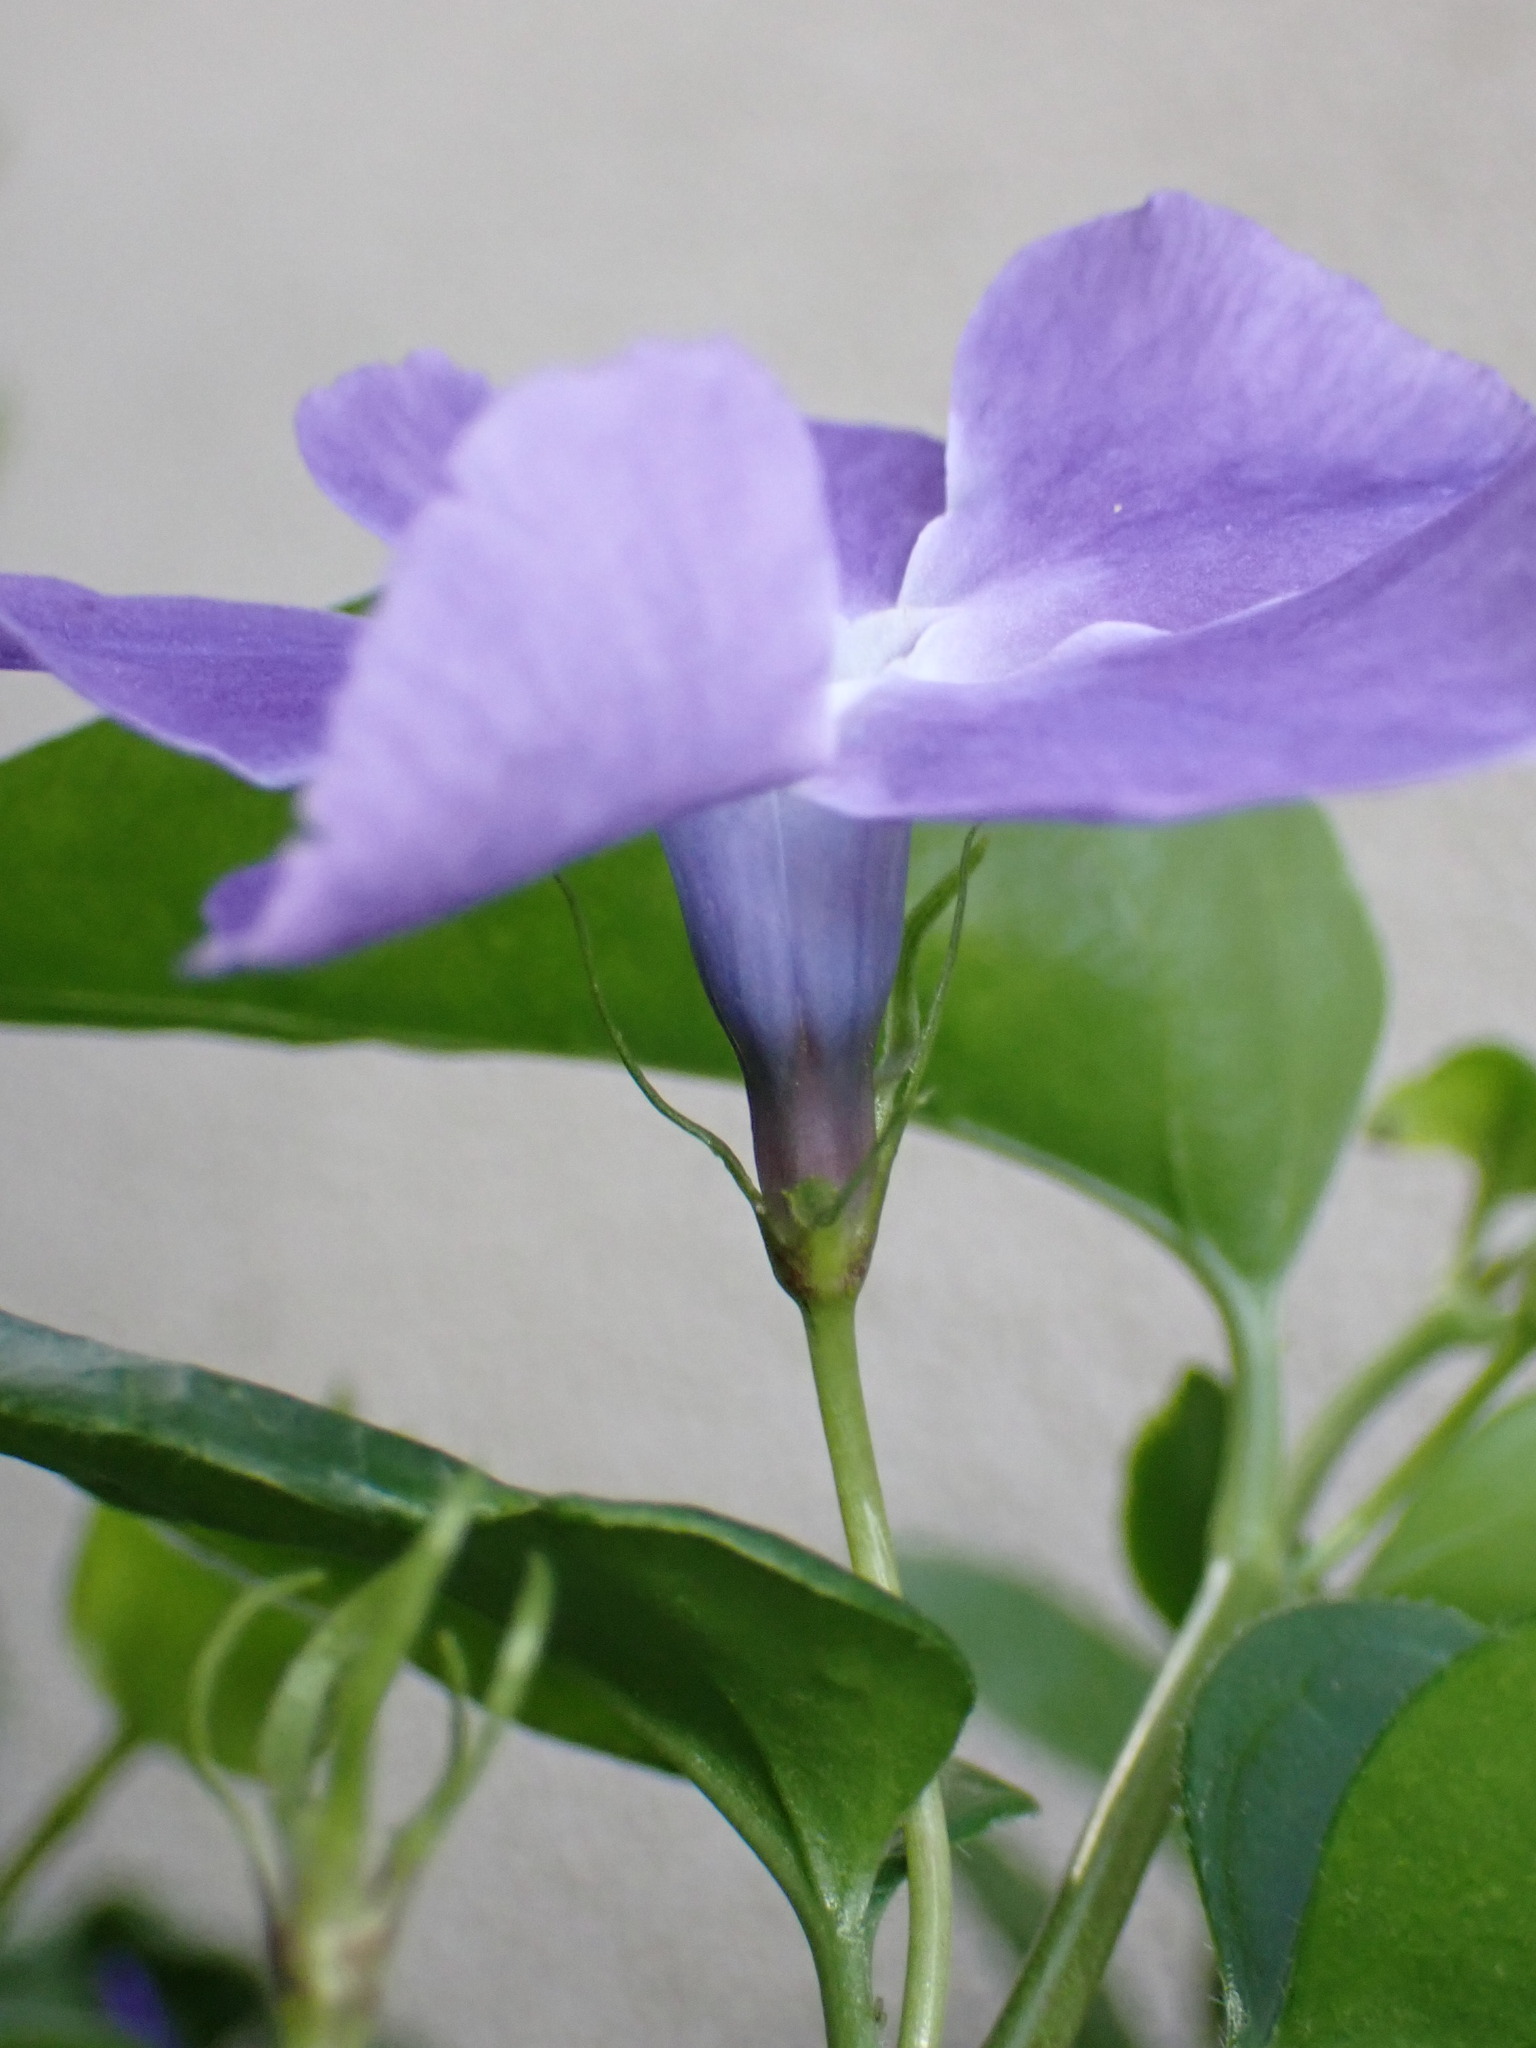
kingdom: Plantae
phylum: Tracheophyta
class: Magnoliopsida
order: Gentianales
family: Apocynaceae
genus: Vinca
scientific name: Vinca major
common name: Greater periwinkle
